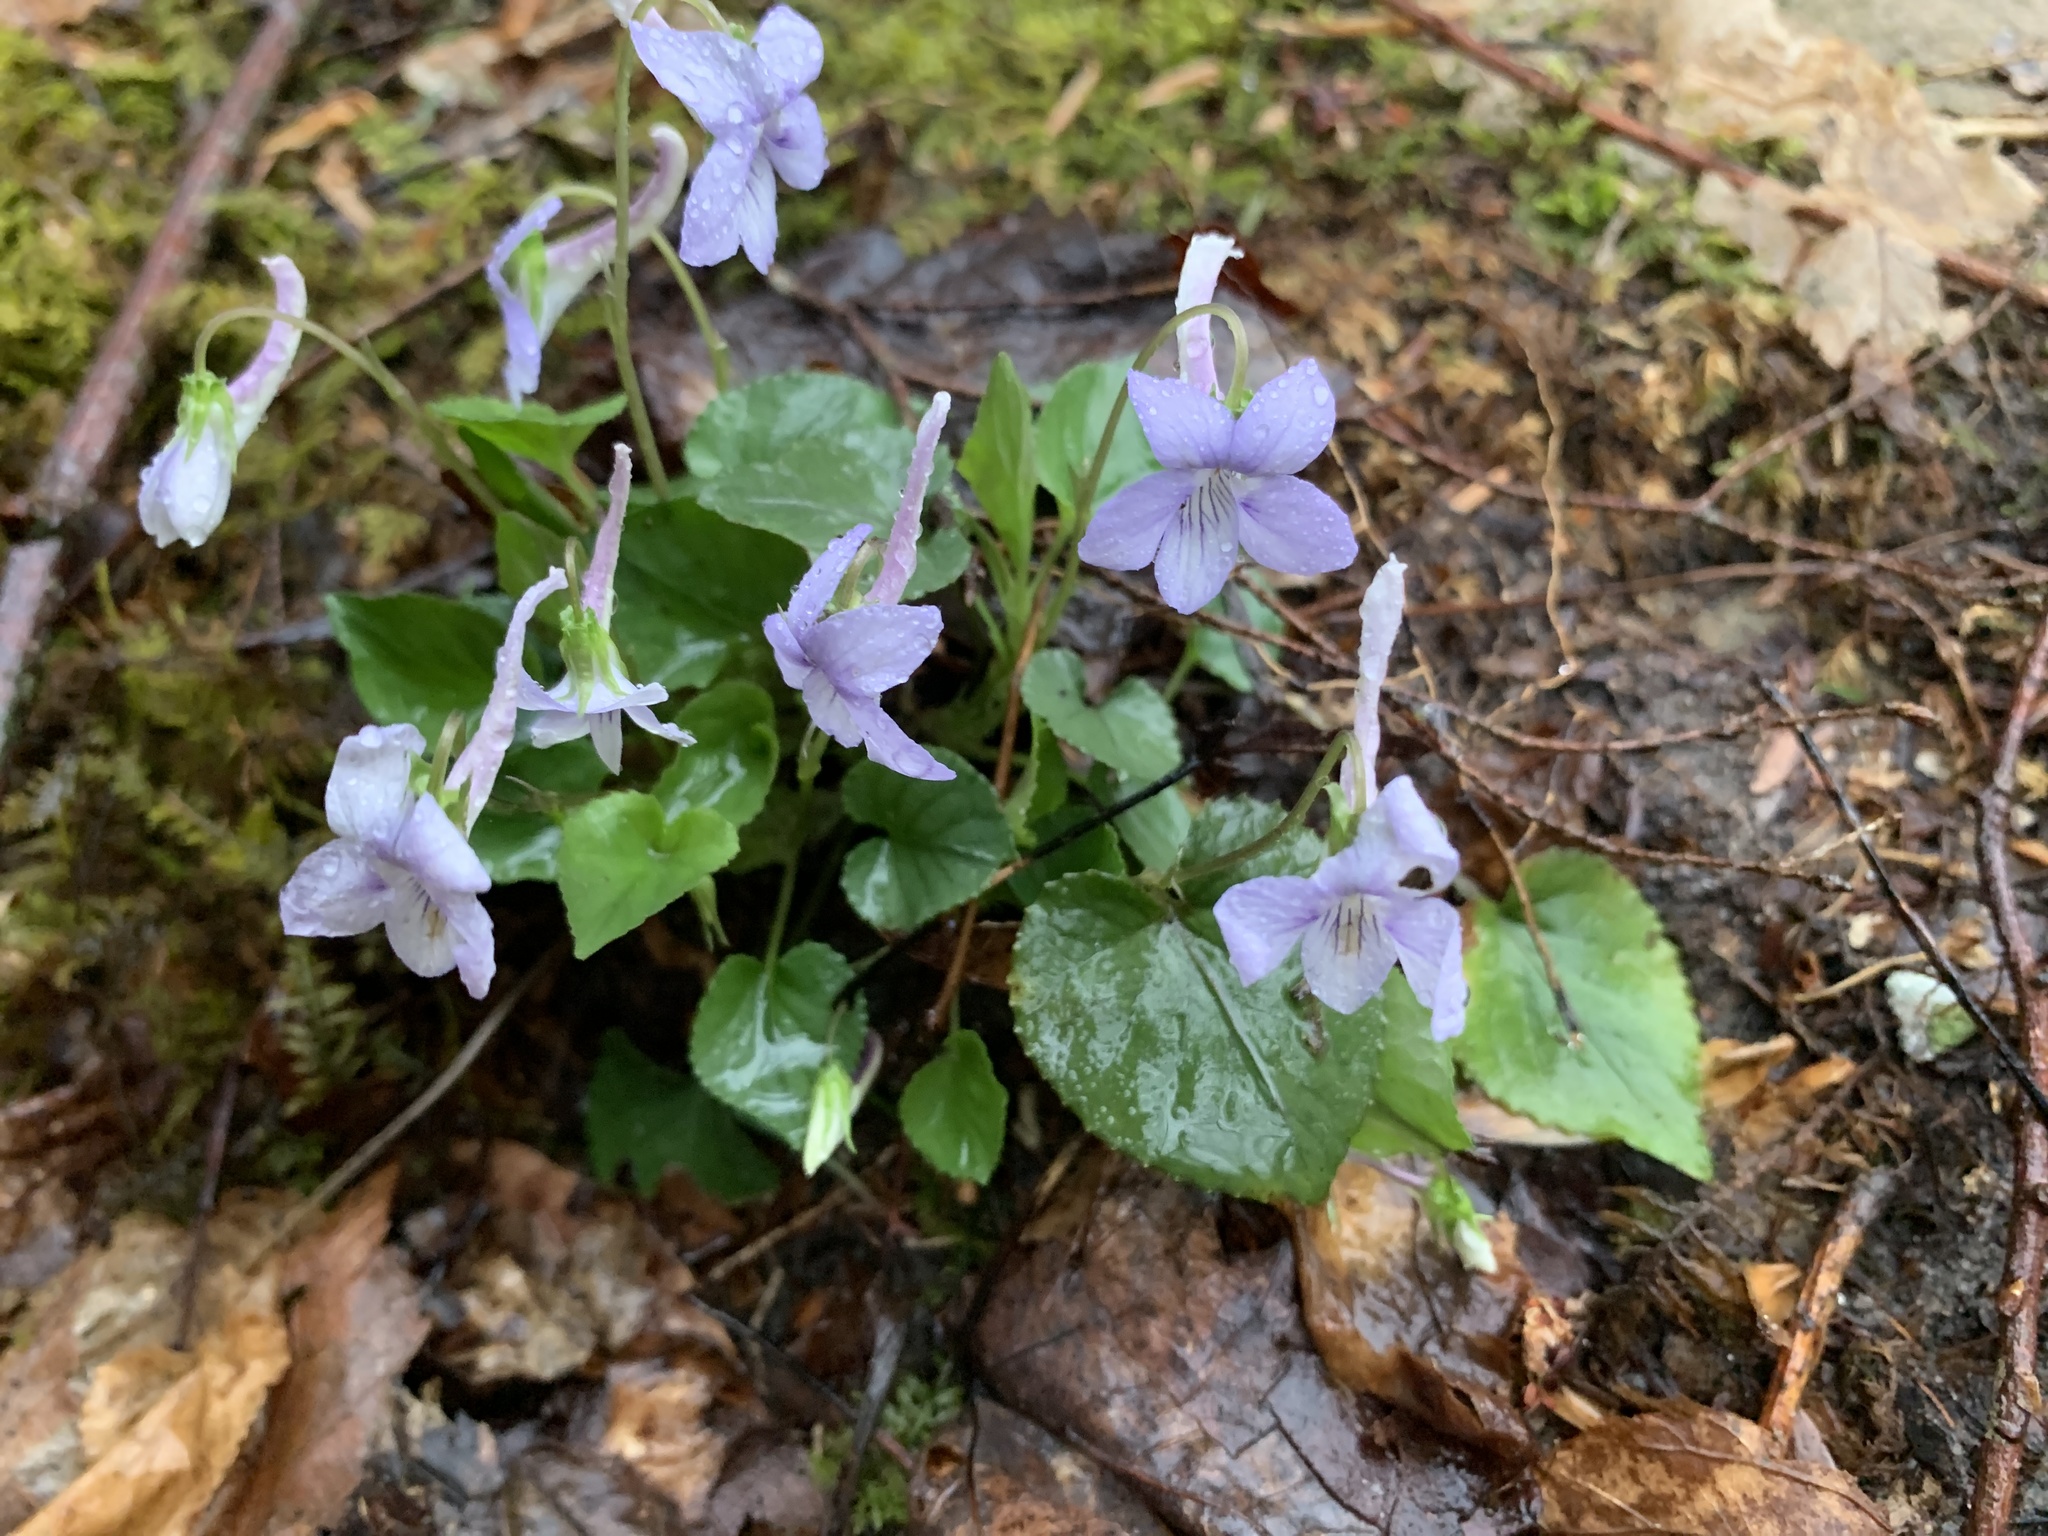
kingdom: Plantae
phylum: Tracheophyta
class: Magnoliopsida
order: Malpighiales
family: Violaceae
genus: Viola
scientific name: Viola rostrata
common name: Long-spur violet
